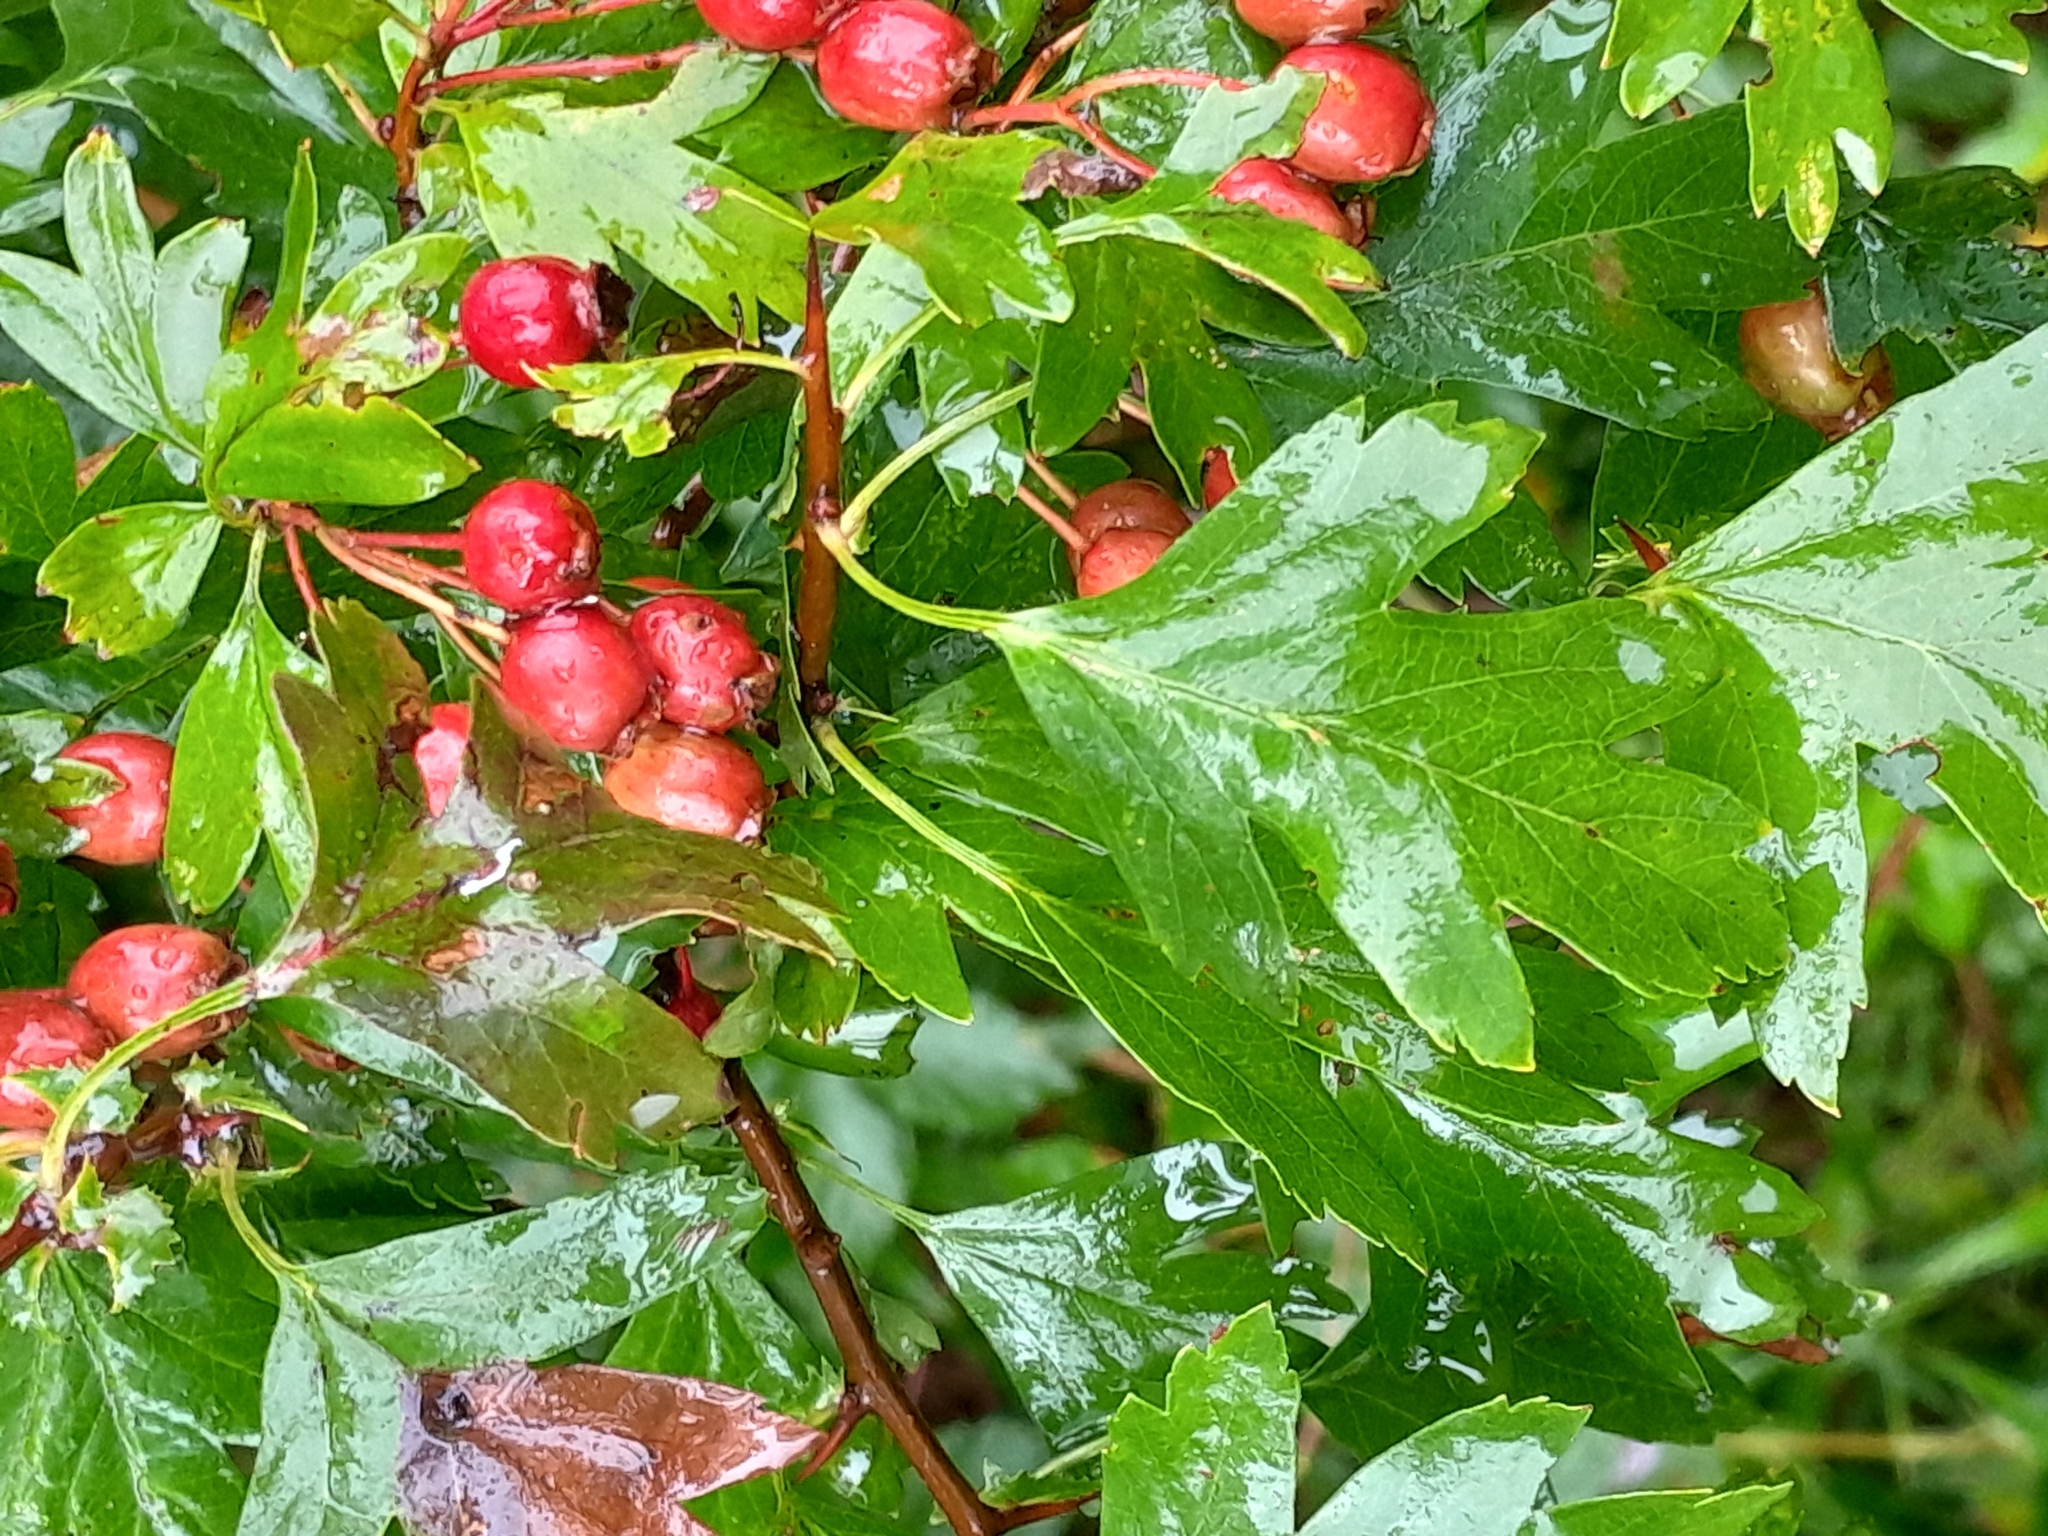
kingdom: Plantae
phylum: Tracheophyta
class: Magnoliopsida
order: Rosales
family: Rosaceae
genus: Crataegus
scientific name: Crataegus monogyna
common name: Hawthorn
